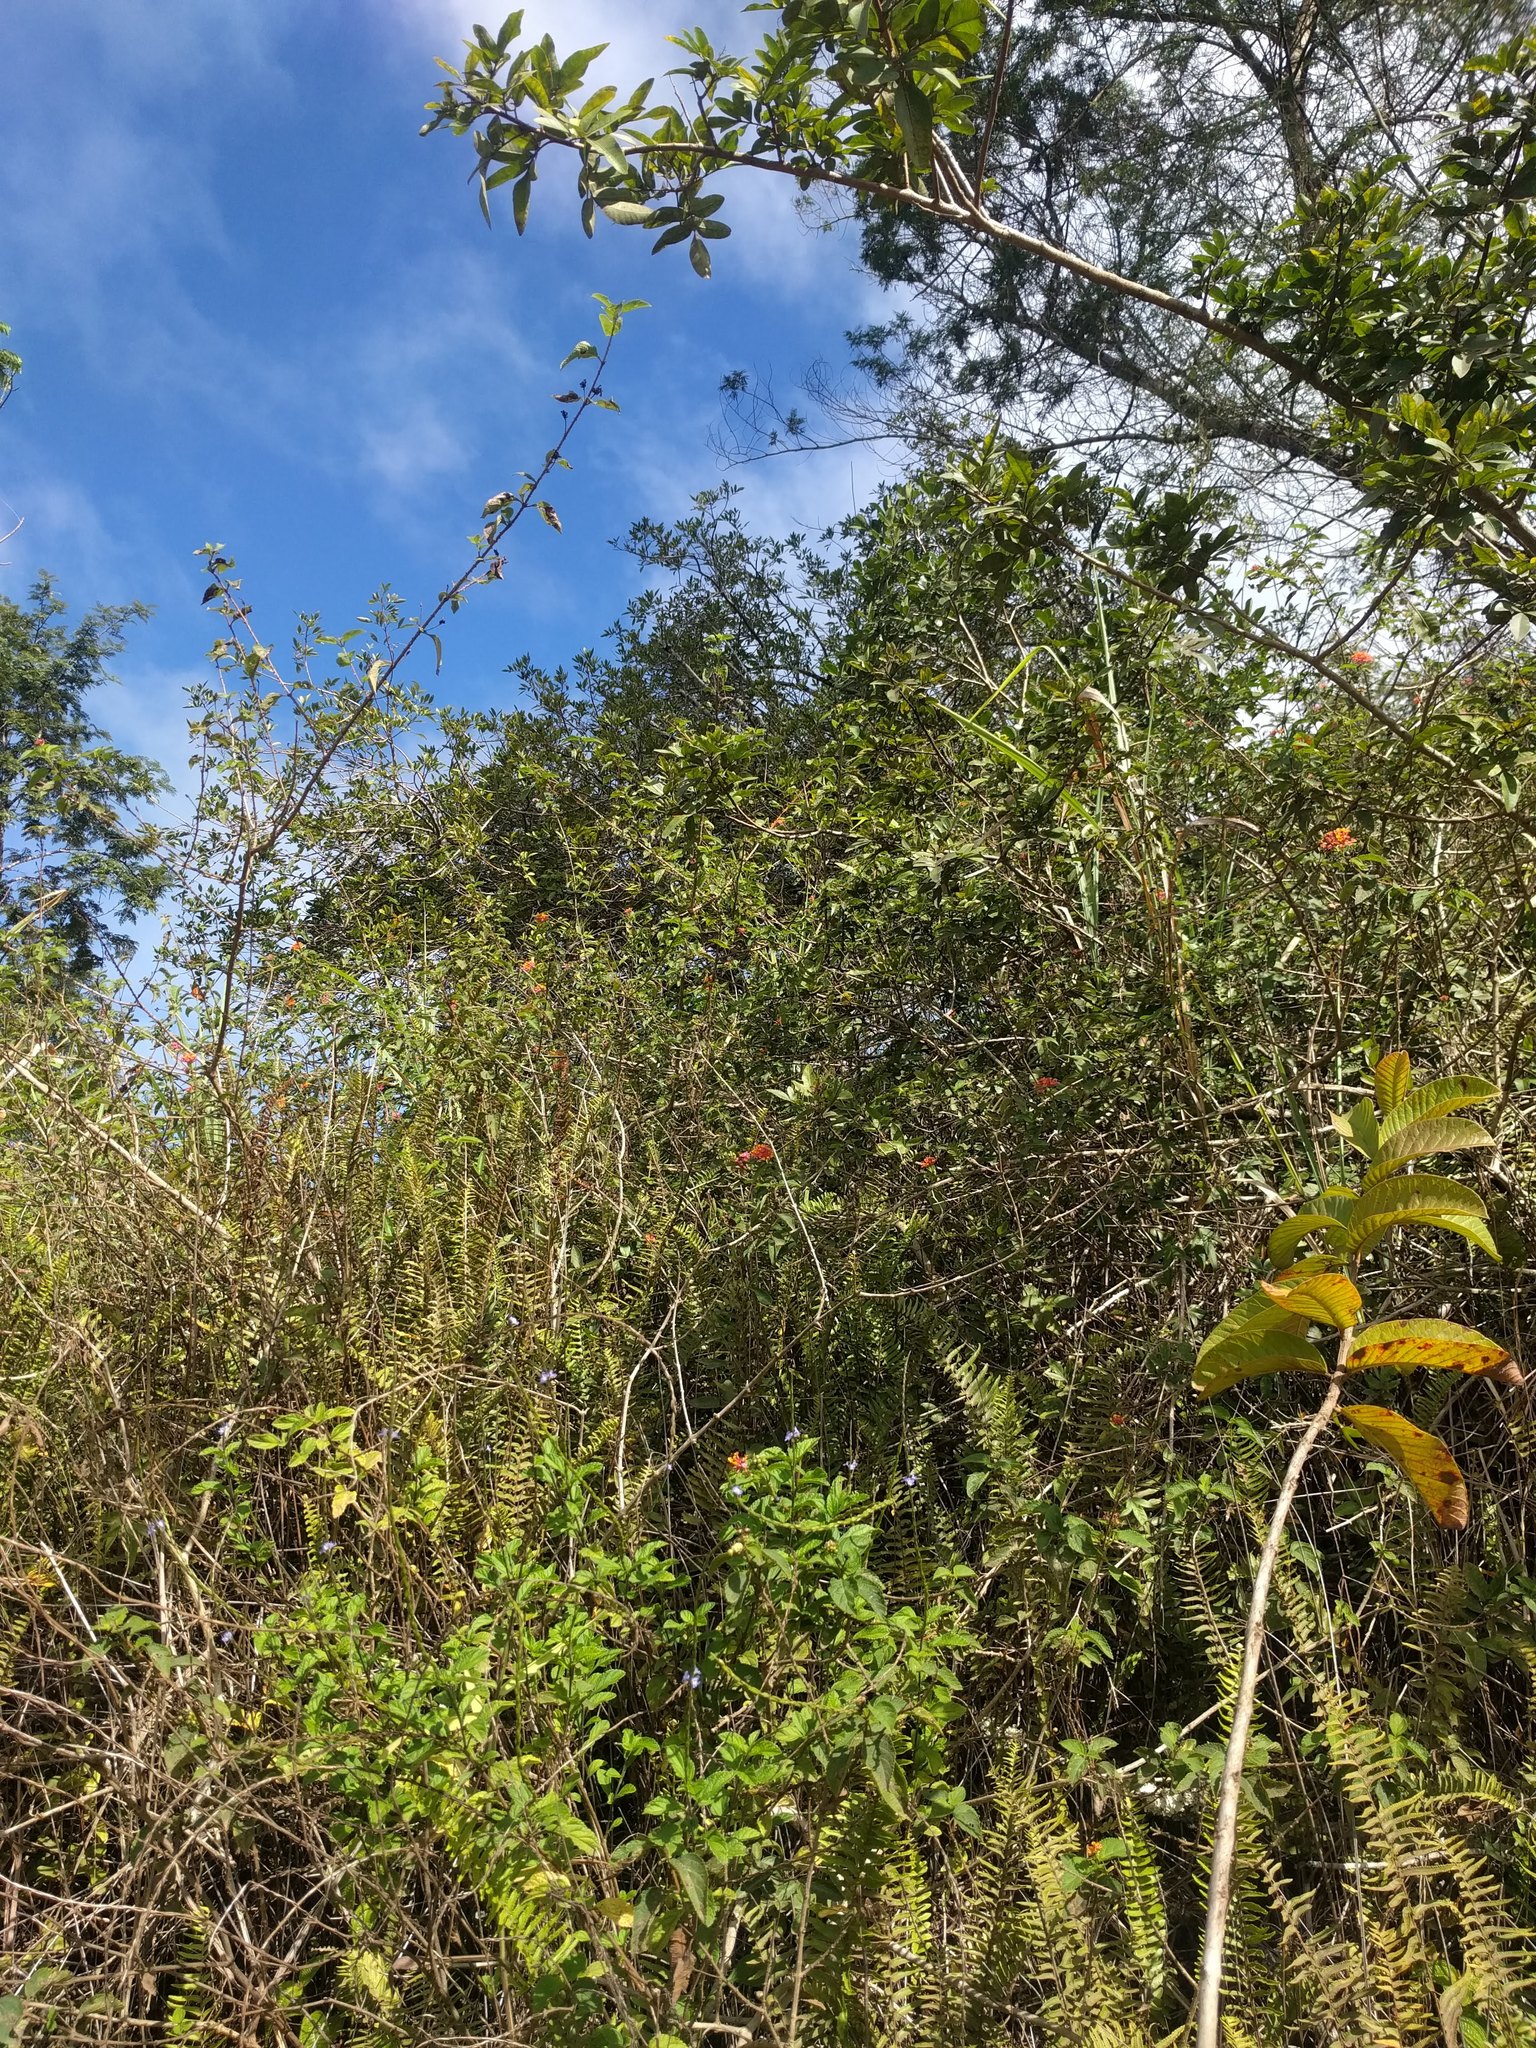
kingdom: Plantae
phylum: Tracheophyta
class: Magnoliopsida
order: Lamiales
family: Verbenaceae
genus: Lantana
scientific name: Lantana camara
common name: Lantana
